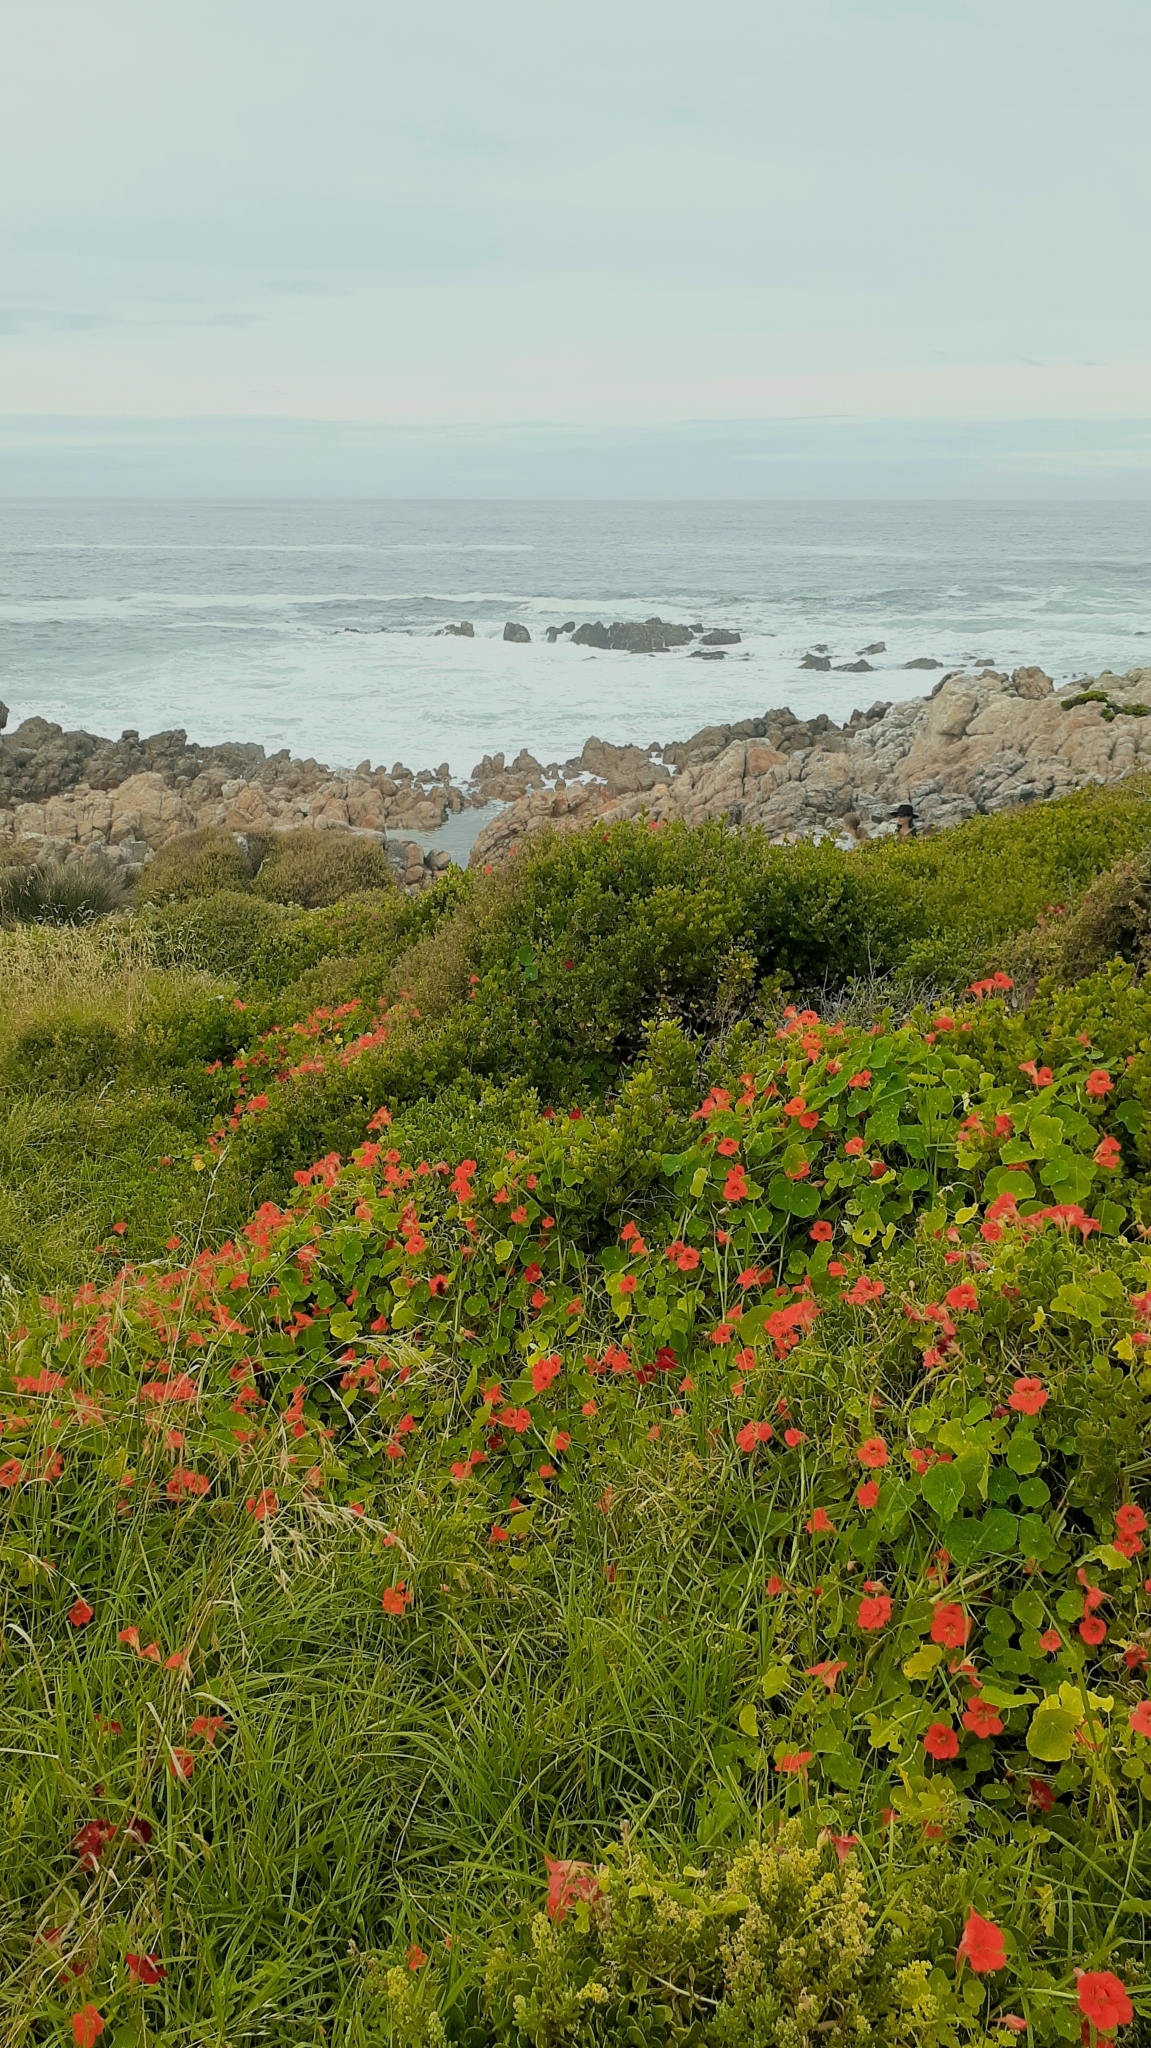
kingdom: Plantae
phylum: Tracheophyta
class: Magnoliopsida
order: Brassicales
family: Tropaeolaceae
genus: Tropaeolum
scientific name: Tropaeolum majus
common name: Nasturtium
